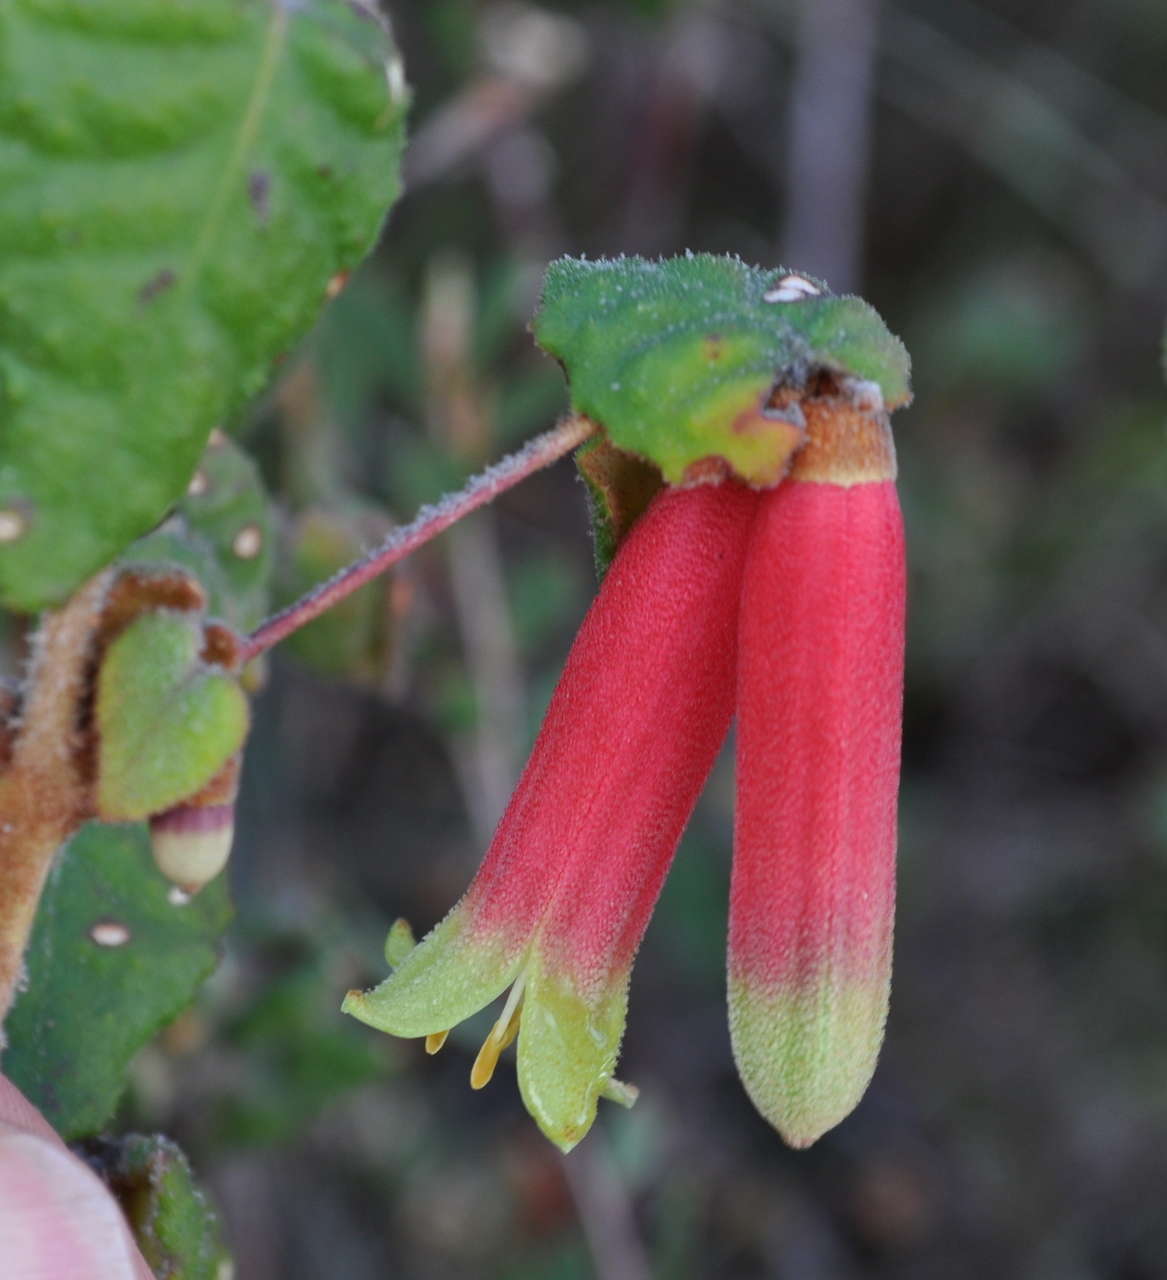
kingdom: Plantae
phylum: Tracheophyta
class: Magnoliopsida
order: Sapindales
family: Rutaceae
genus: Correa
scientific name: Correa reflexa
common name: Common correa
